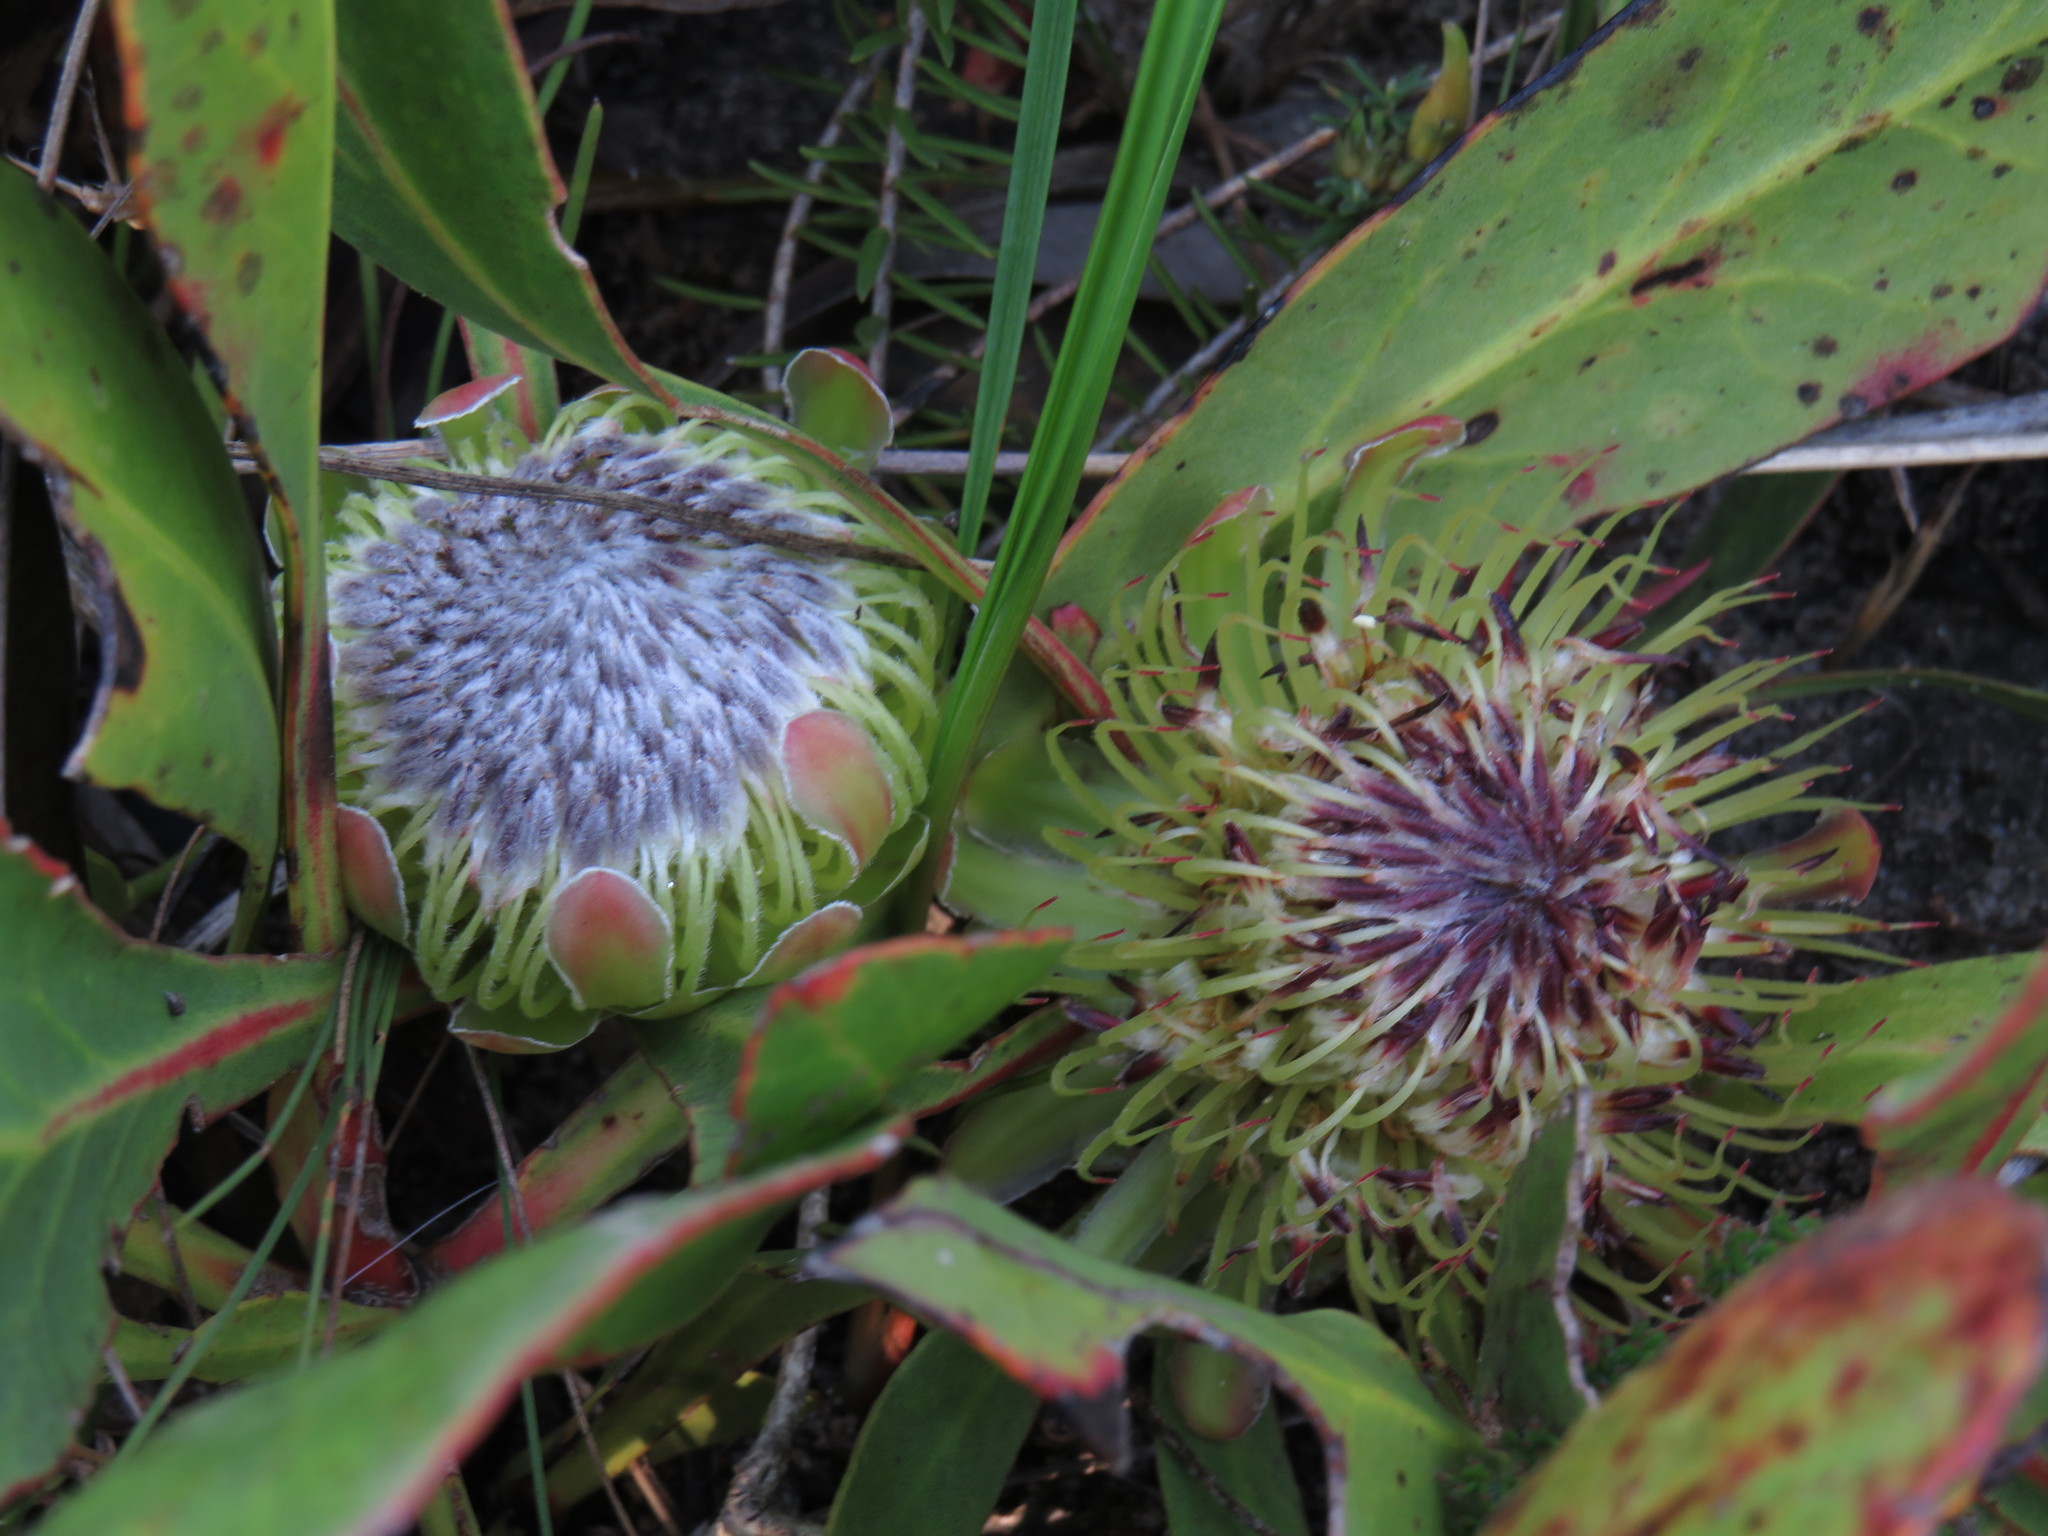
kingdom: Plantae
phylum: Tracheophyta
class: Magnoliopsida
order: Proteales
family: Proteaceae
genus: Protea
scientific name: Protea acaulos
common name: Common ground sugarbush
